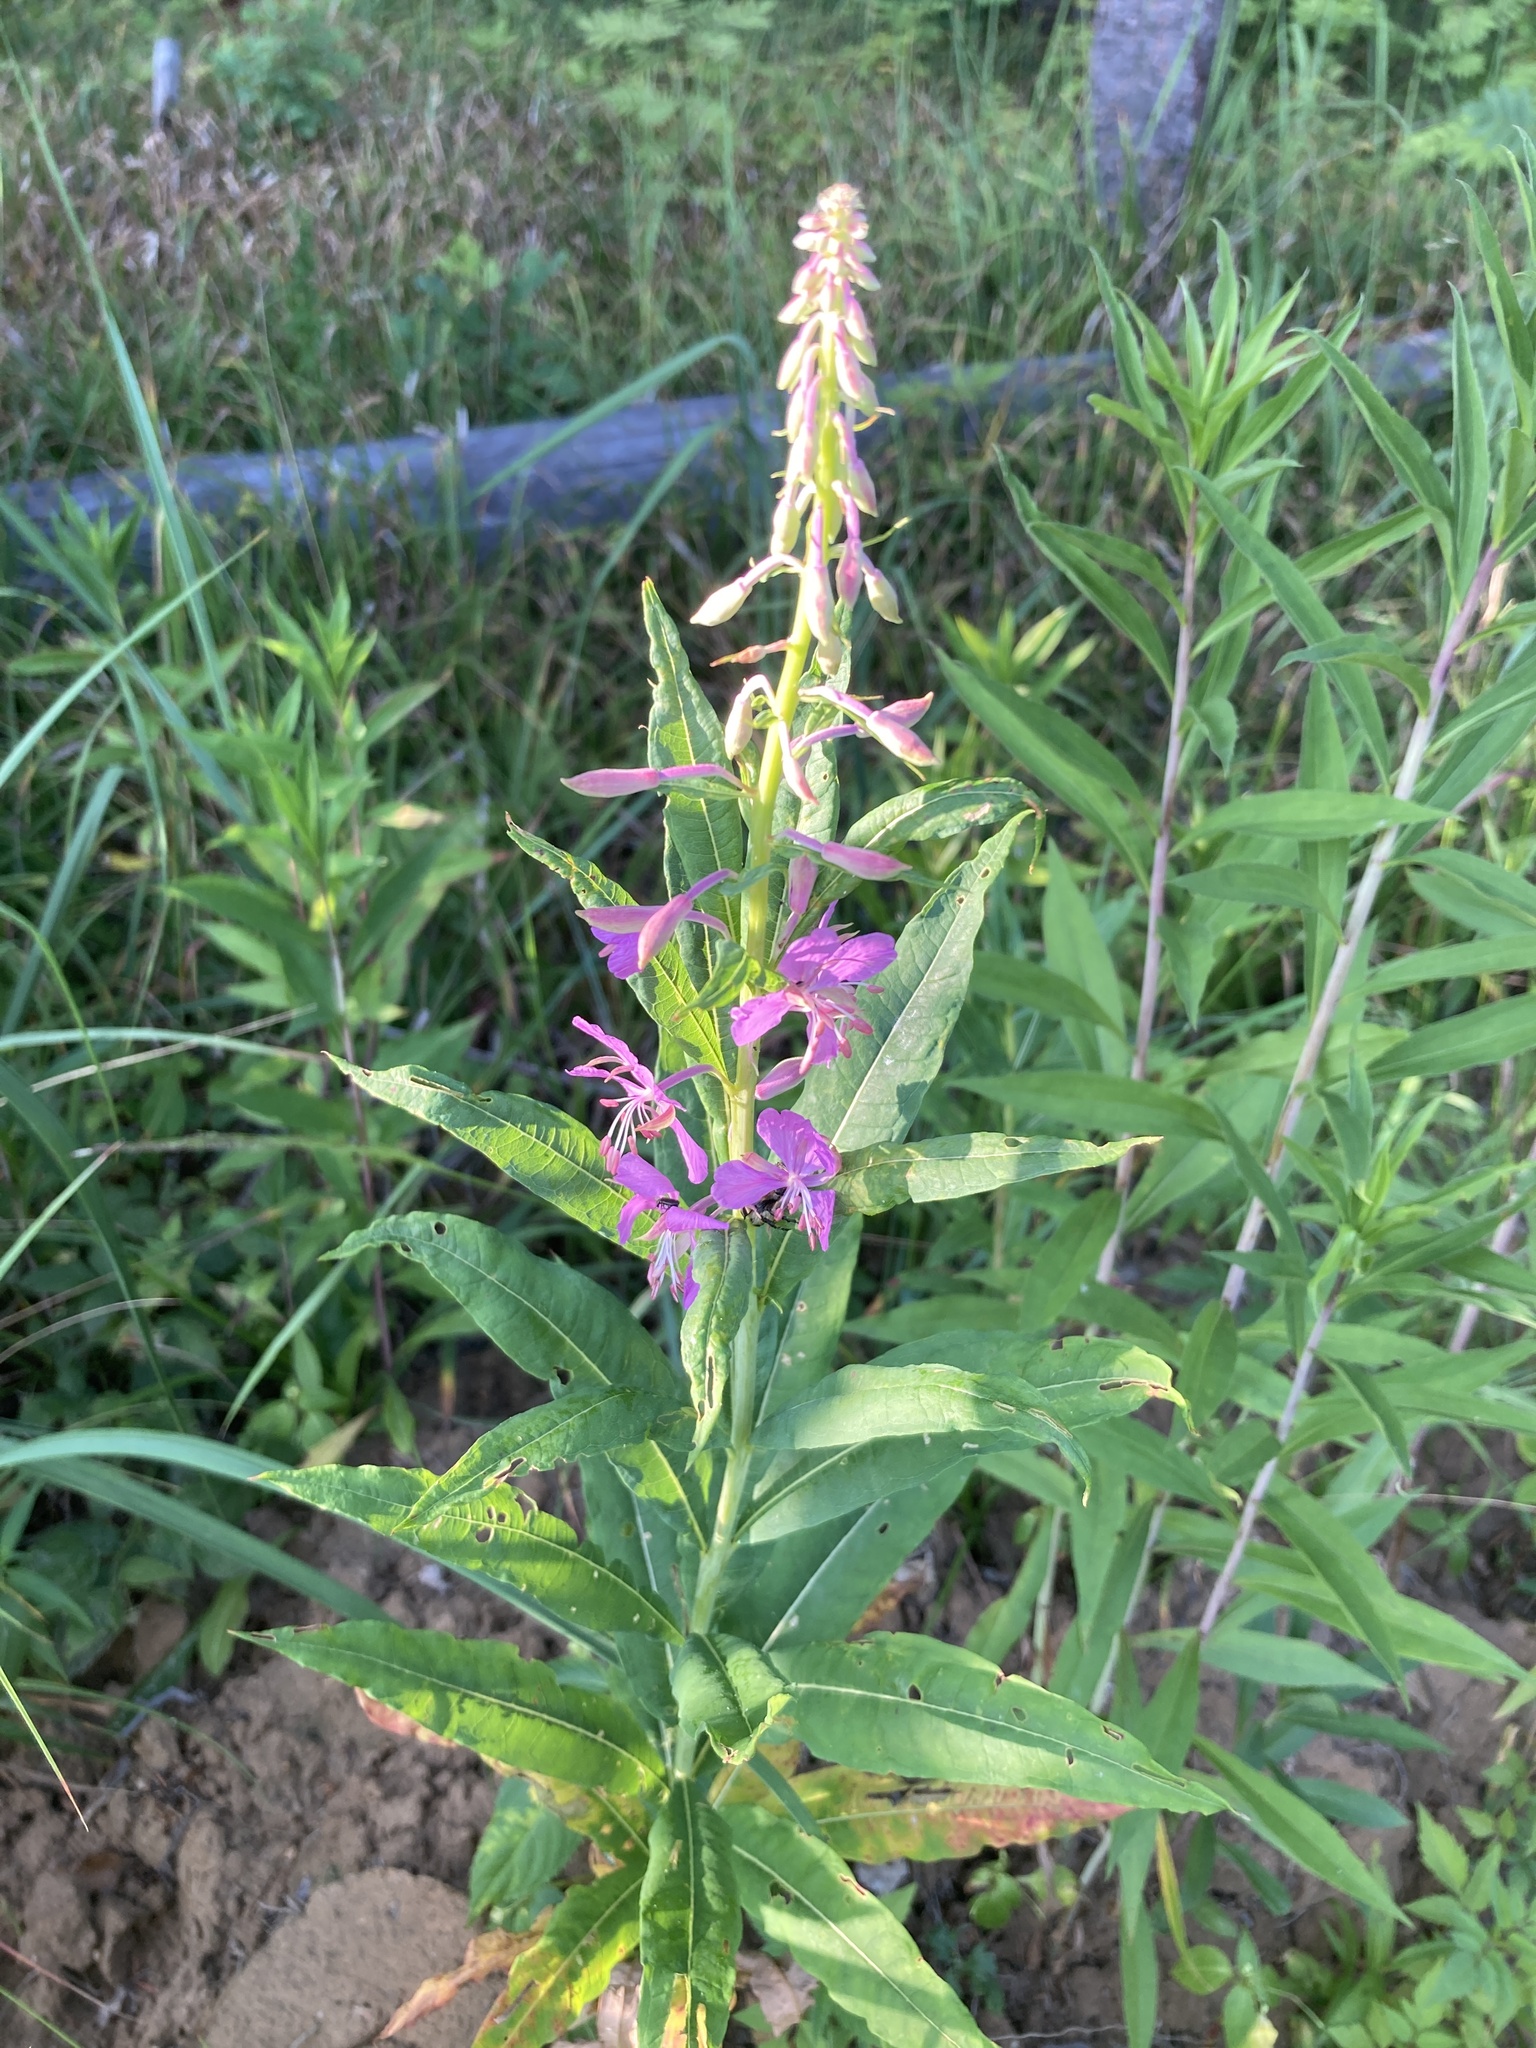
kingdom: Plantae
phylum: Tracheophyta
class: Magnoliopsida
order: Myrtales
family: Onagraceae
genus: Chamaenerion
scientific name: Chamaenerion angustifolium
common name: Fireweed
